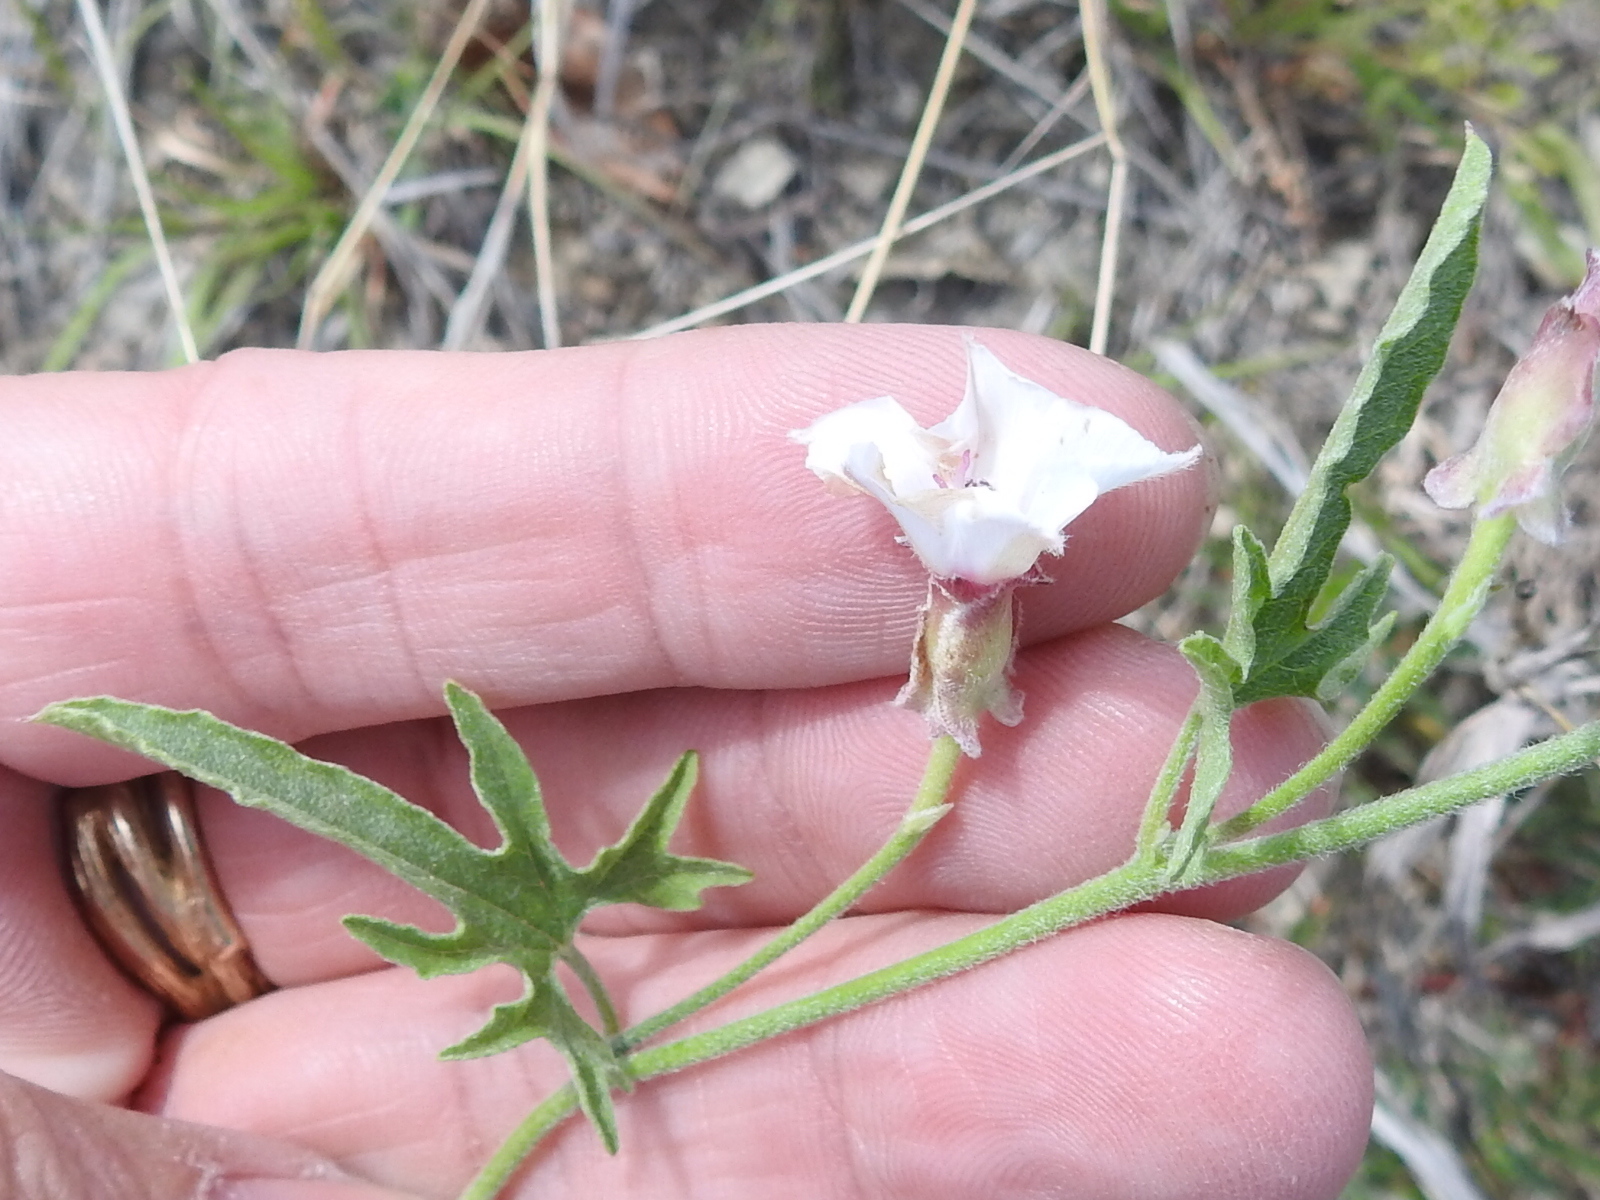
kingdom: Plantae
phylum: Tracheophyta
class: Magnoliopsida
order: Solanales
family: Convolvulaceae
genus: Convolvulus
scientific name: Convolvulus equitans
